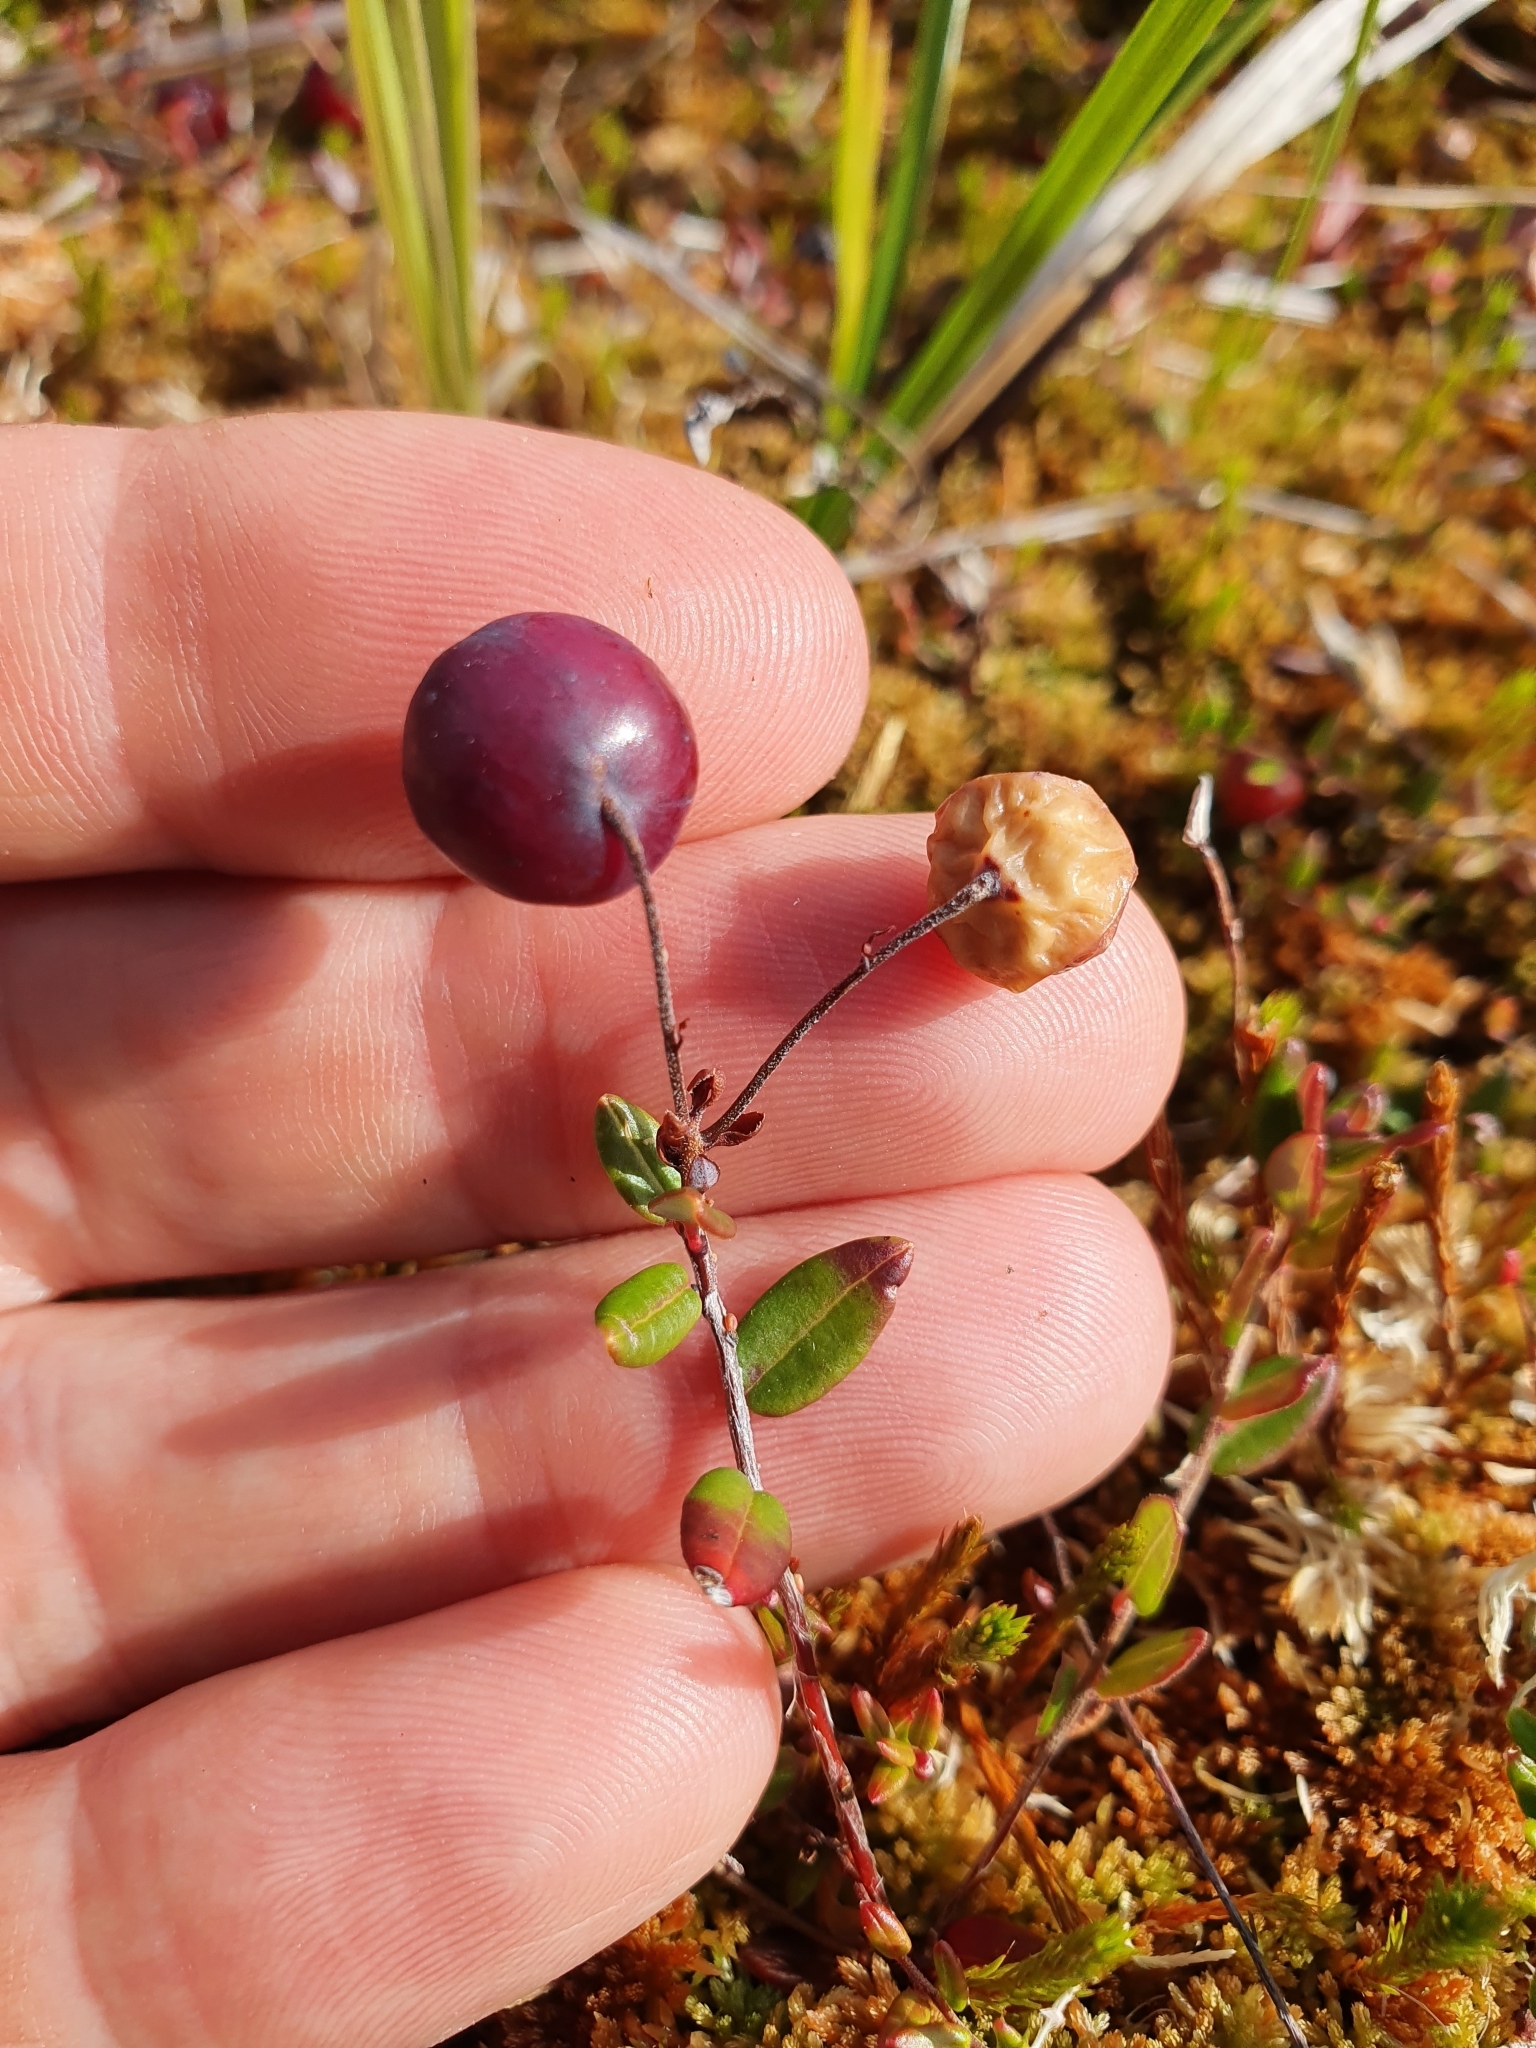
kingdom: Plantae
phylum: Tracheophyta
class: Magnoliopsida
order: Ericales
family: Ericaceae
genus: Vaccinium
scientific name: Vaccinium oxycoccos
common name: Cranberry
